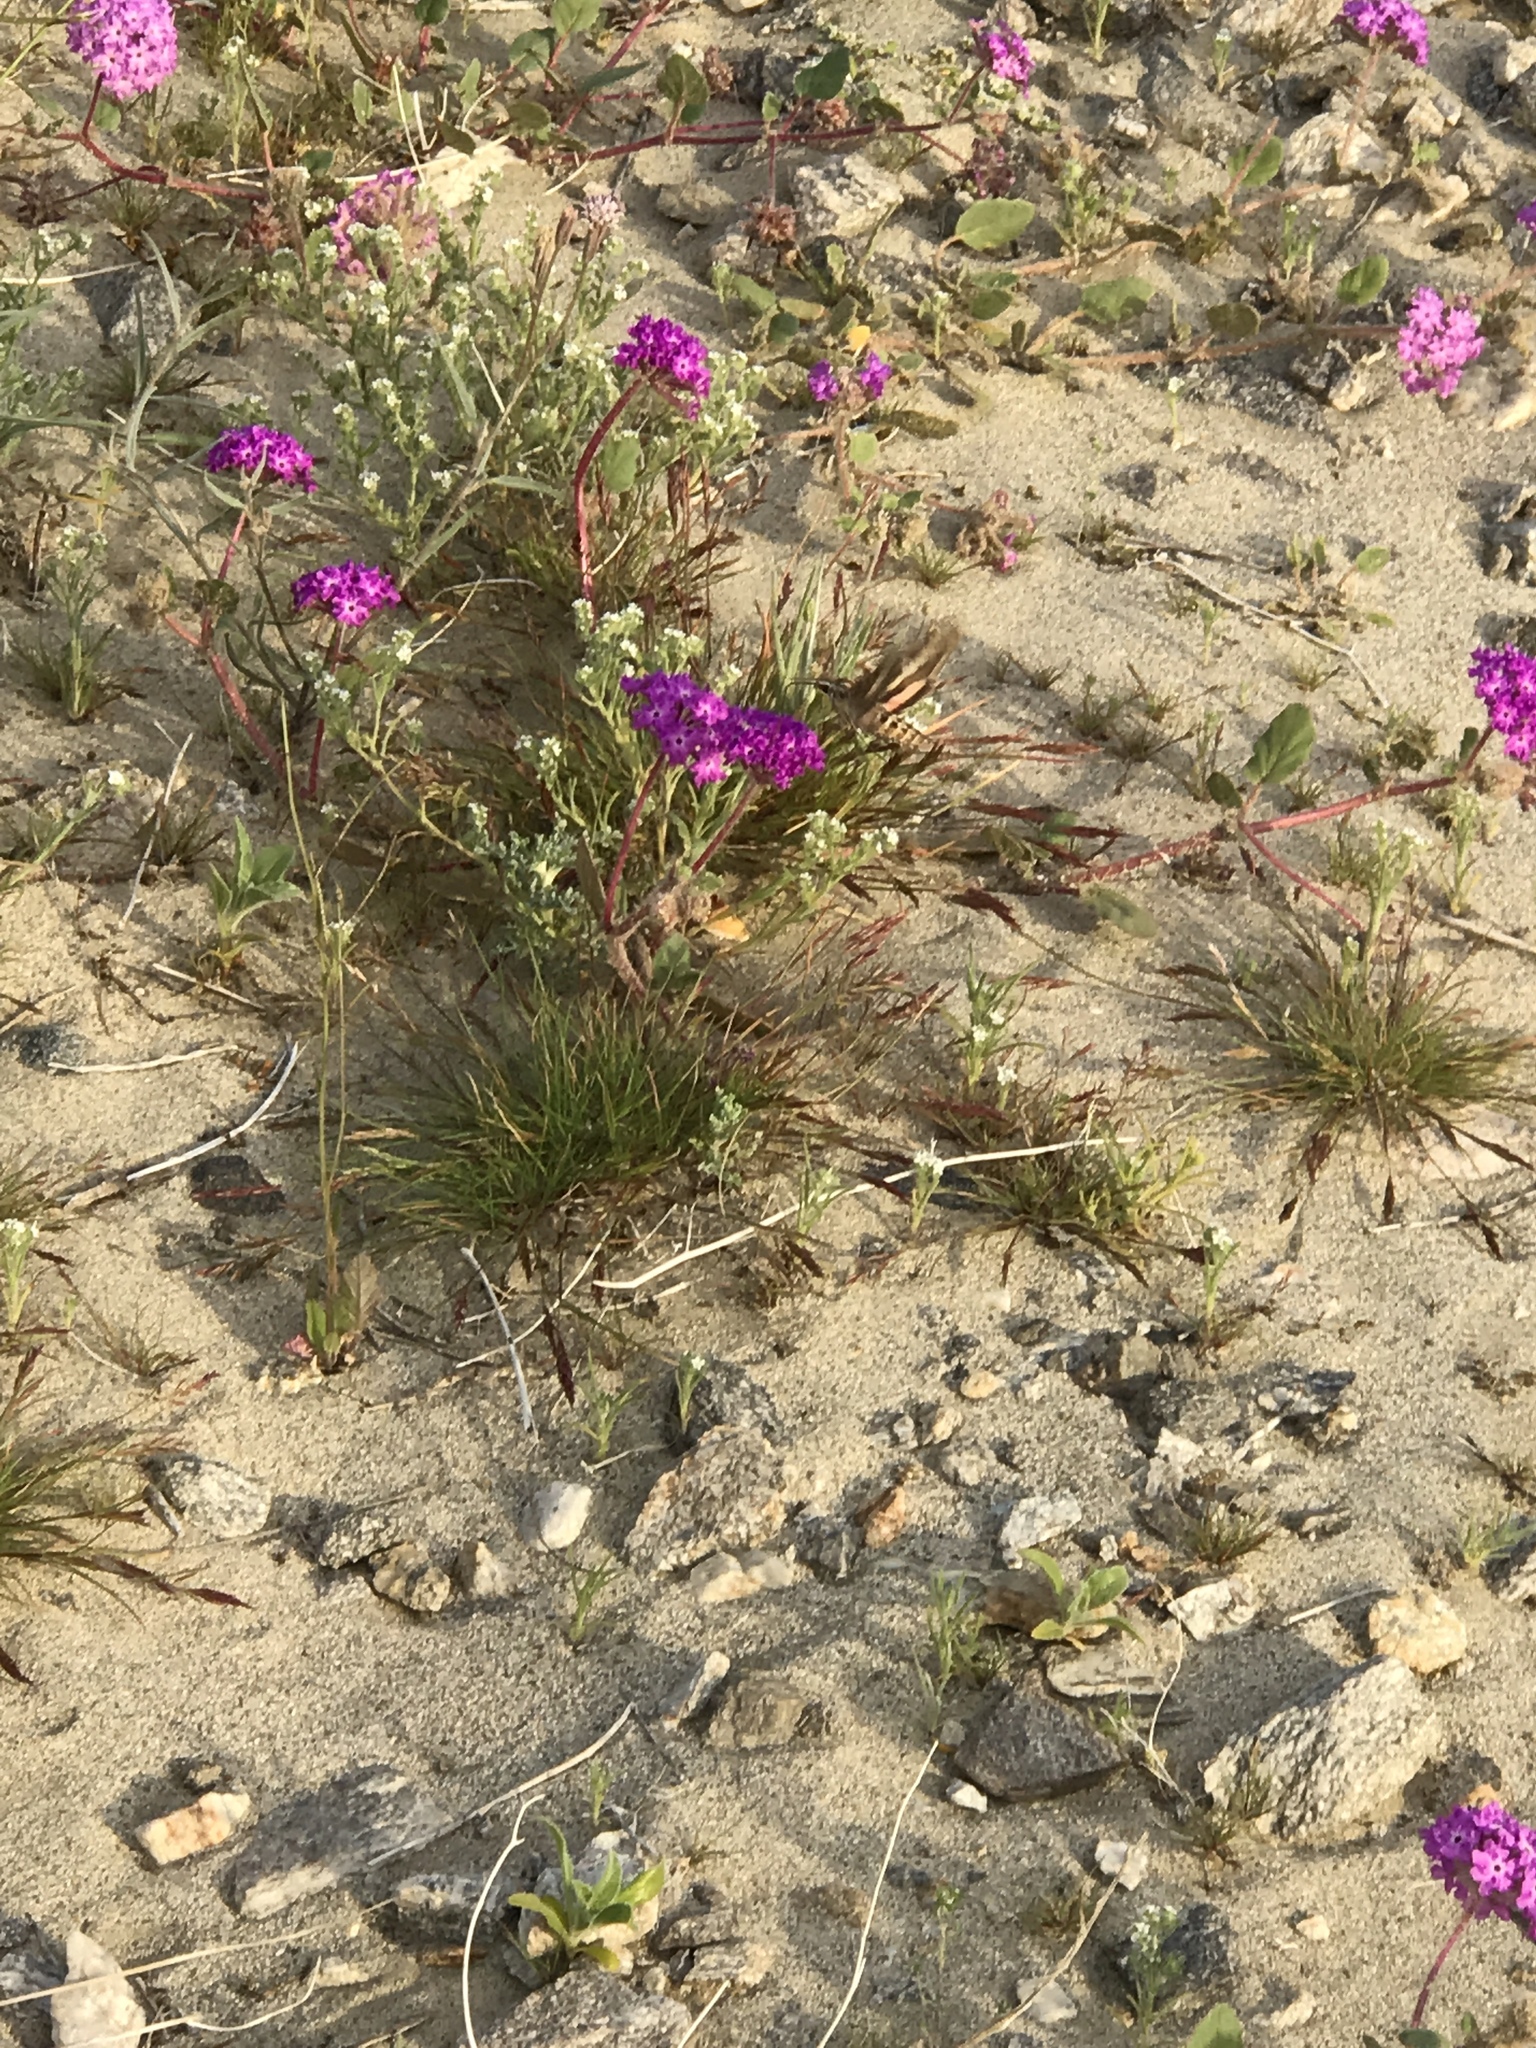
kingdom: Animalia
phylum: Arthropoda
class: Insecta
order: Lepidoptera
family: Sphingidae
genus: Hyles
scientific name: Hyles lineata
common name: White-lined sphinx
